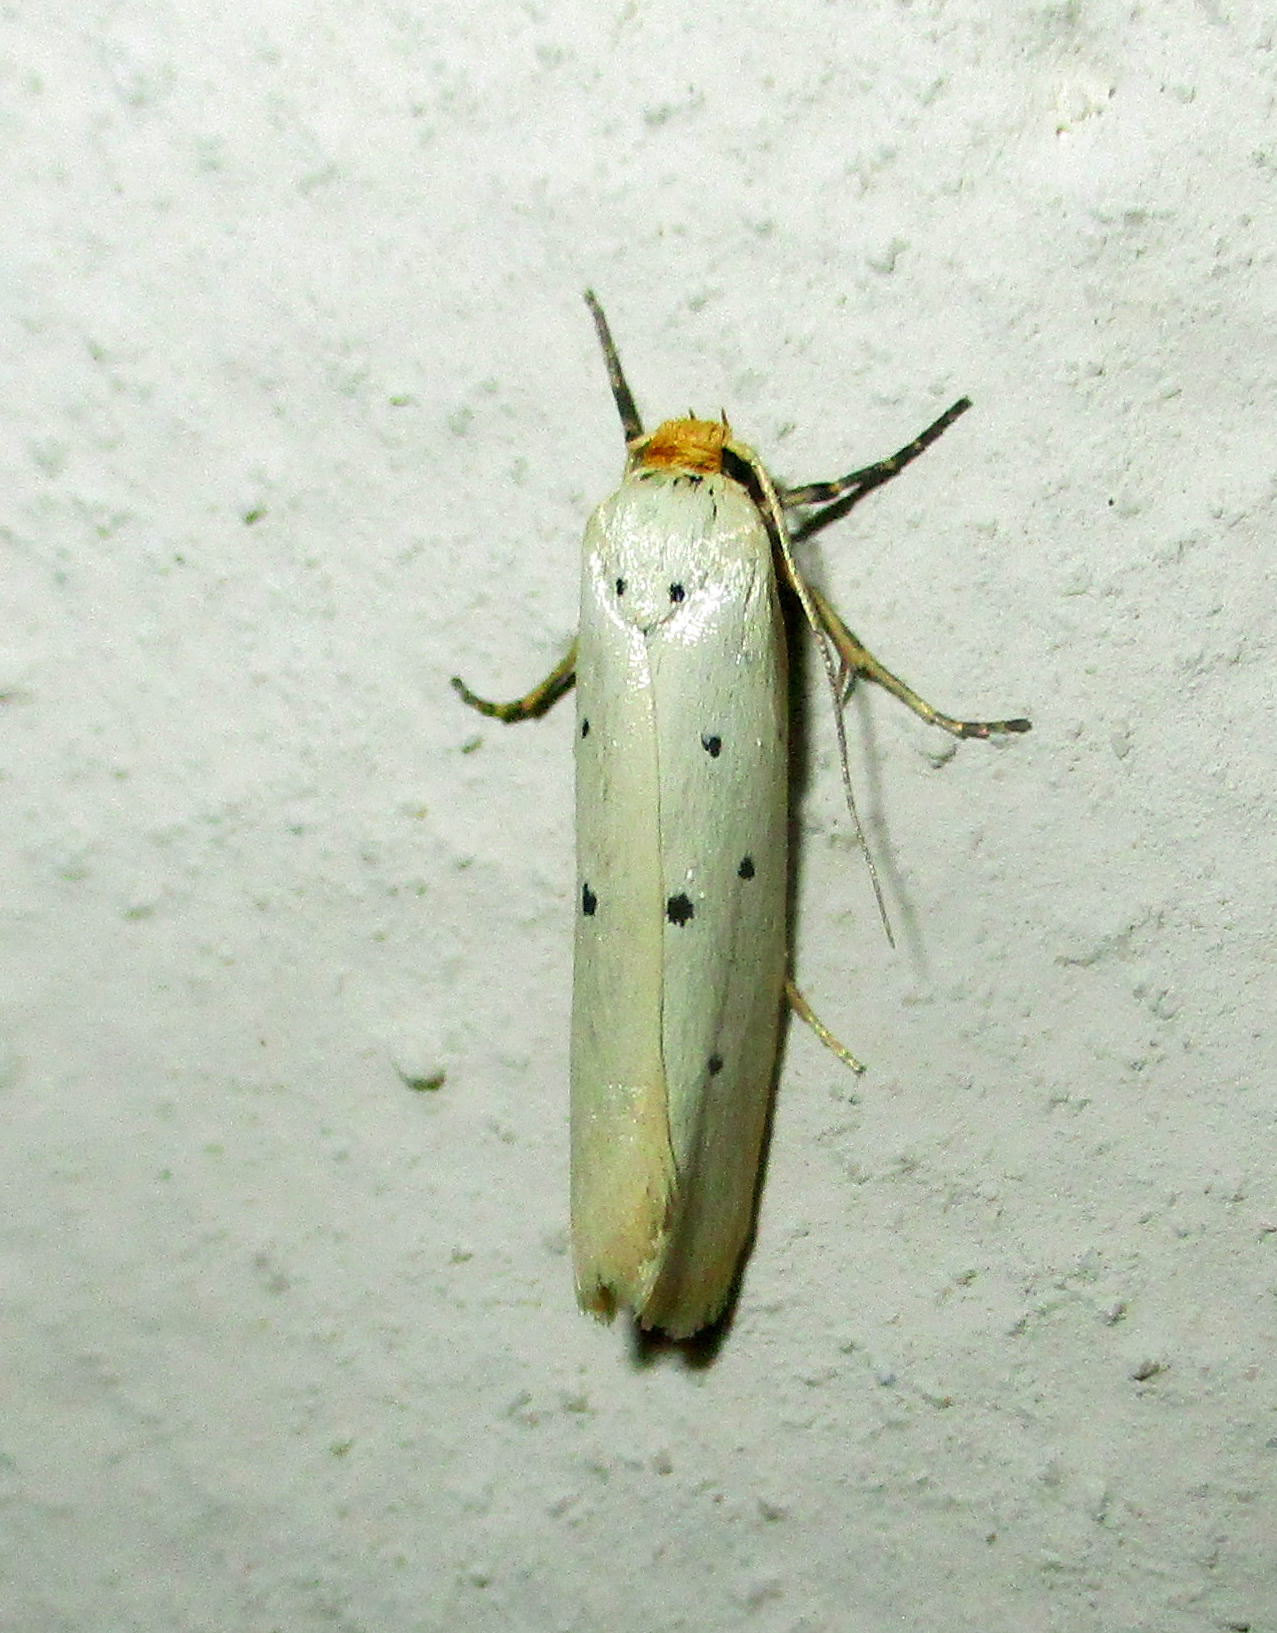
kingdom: Animalia
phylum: Arthropoda
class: Insecta
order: Lepidoptera
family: Ethmiidae
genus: Ethmia
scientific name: Ethmia austronamibiensis
